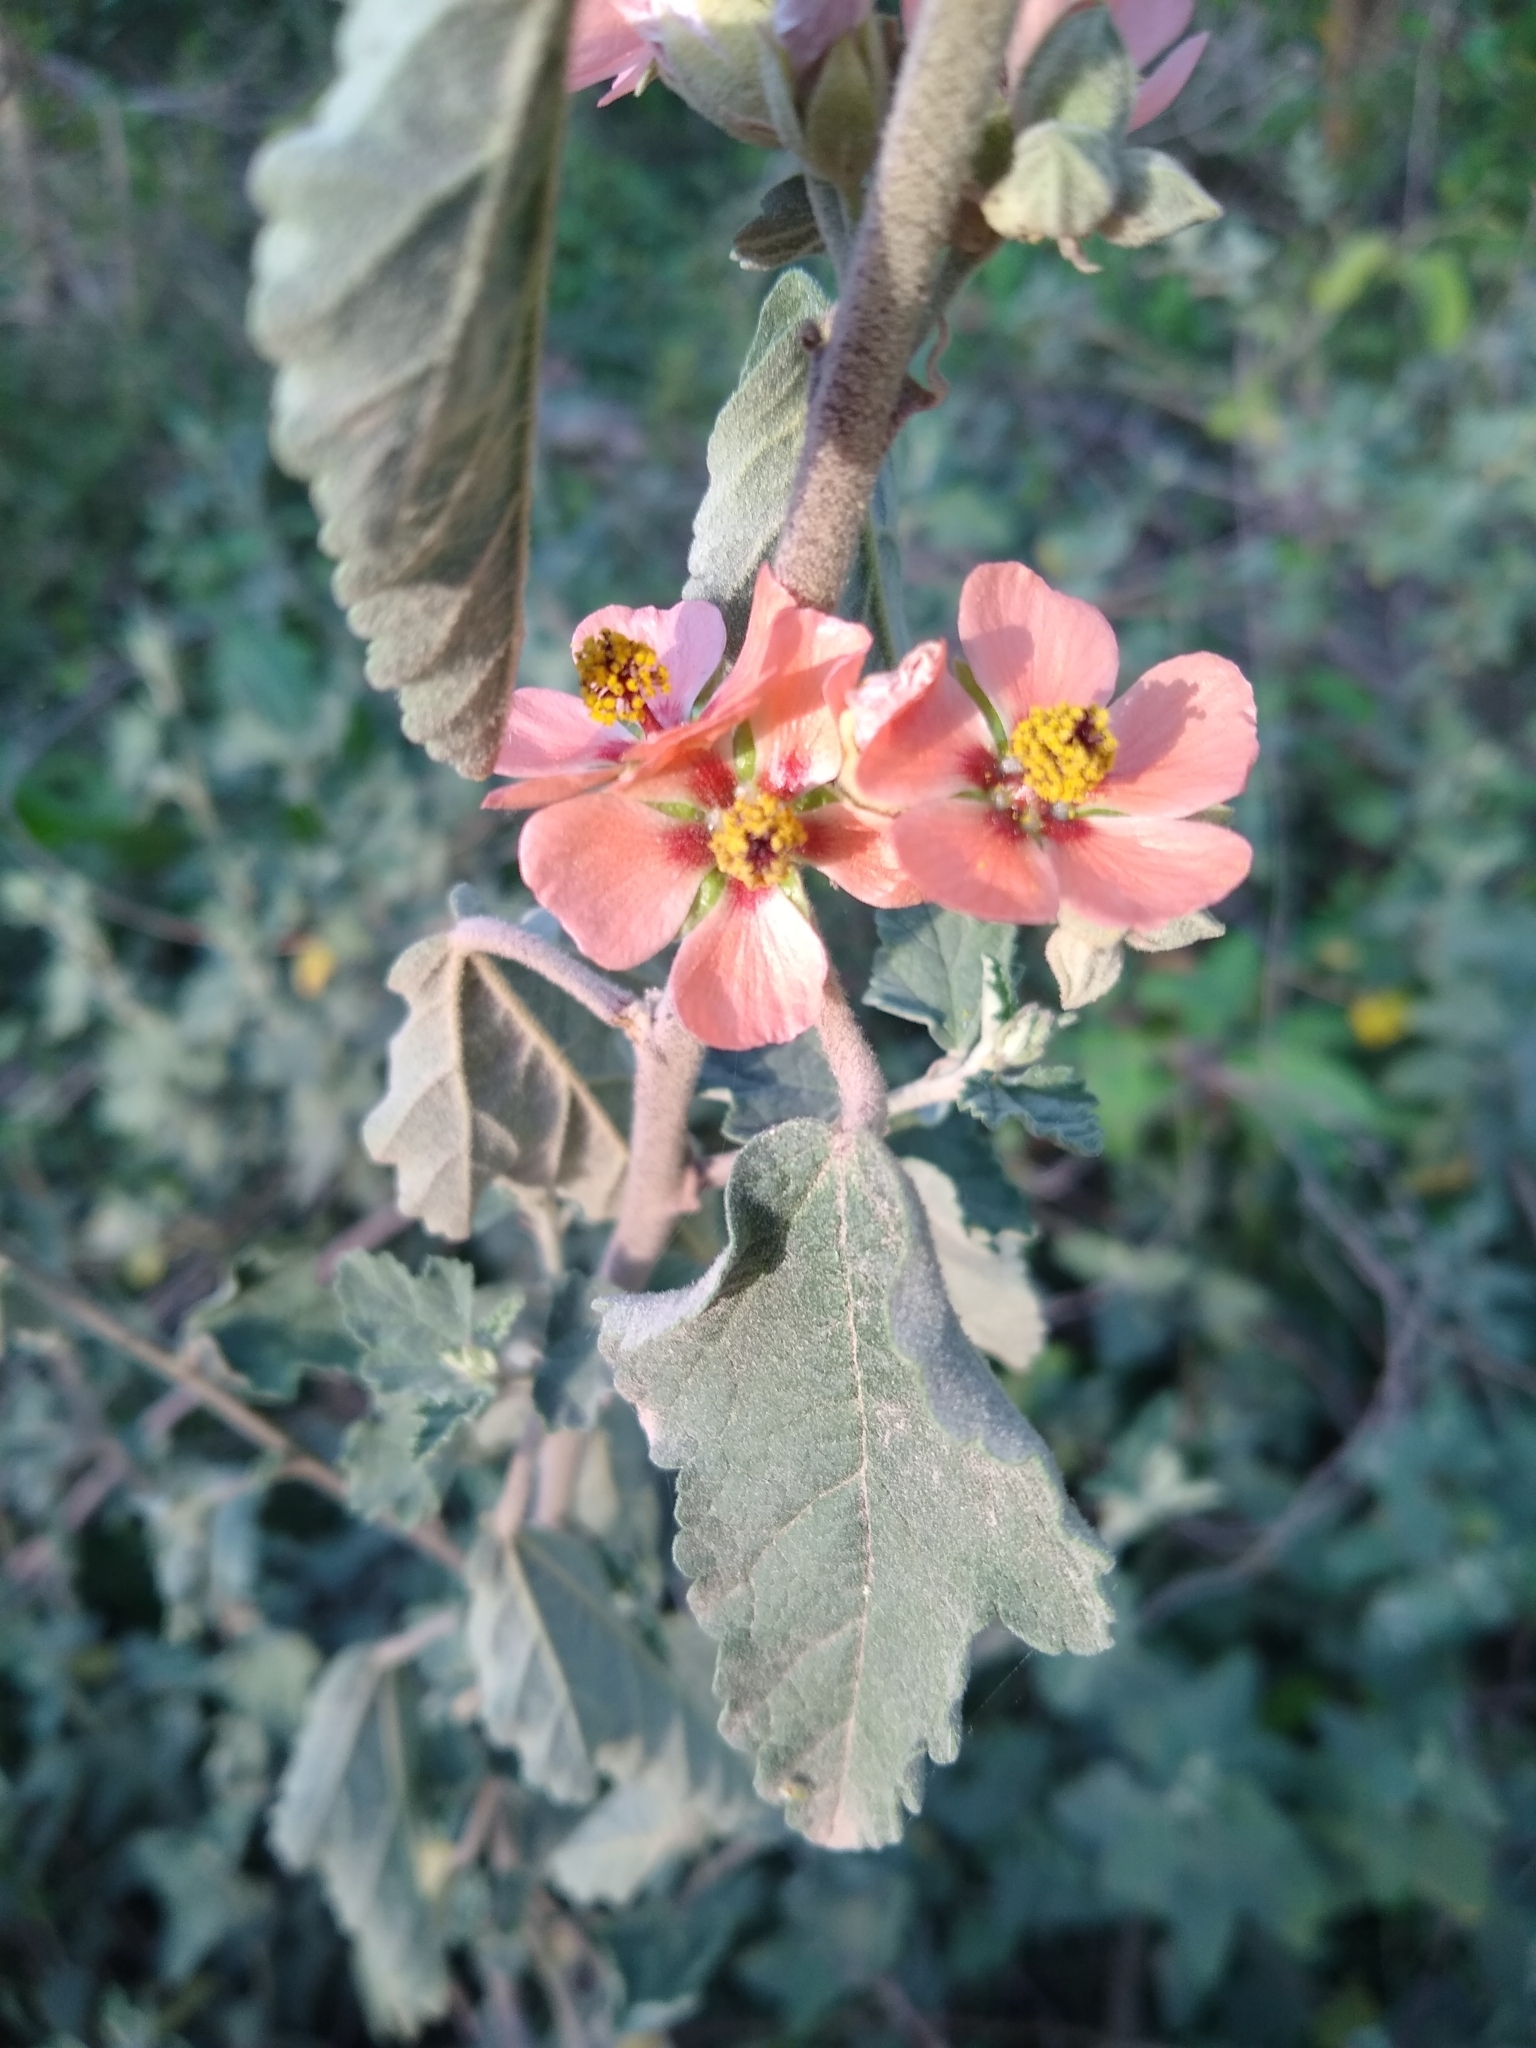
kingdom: Plantae
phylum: Tracheophyta
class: Magnoliopsida
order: Malvales
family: Malvaceae
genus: Sphaeralcea
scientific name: Sphaeralcea bonariensis
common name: Latin globemallow
